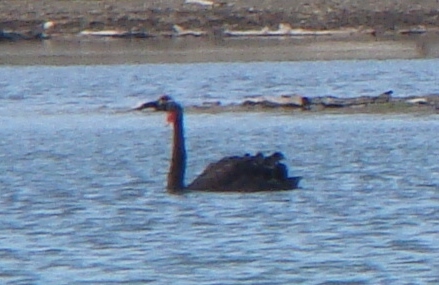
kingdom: Animalia
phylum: Chordata
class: Aves
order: Anseriformes
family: Anatidae
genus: Cygnus
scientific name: Cygnus atratus
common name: Black swan
